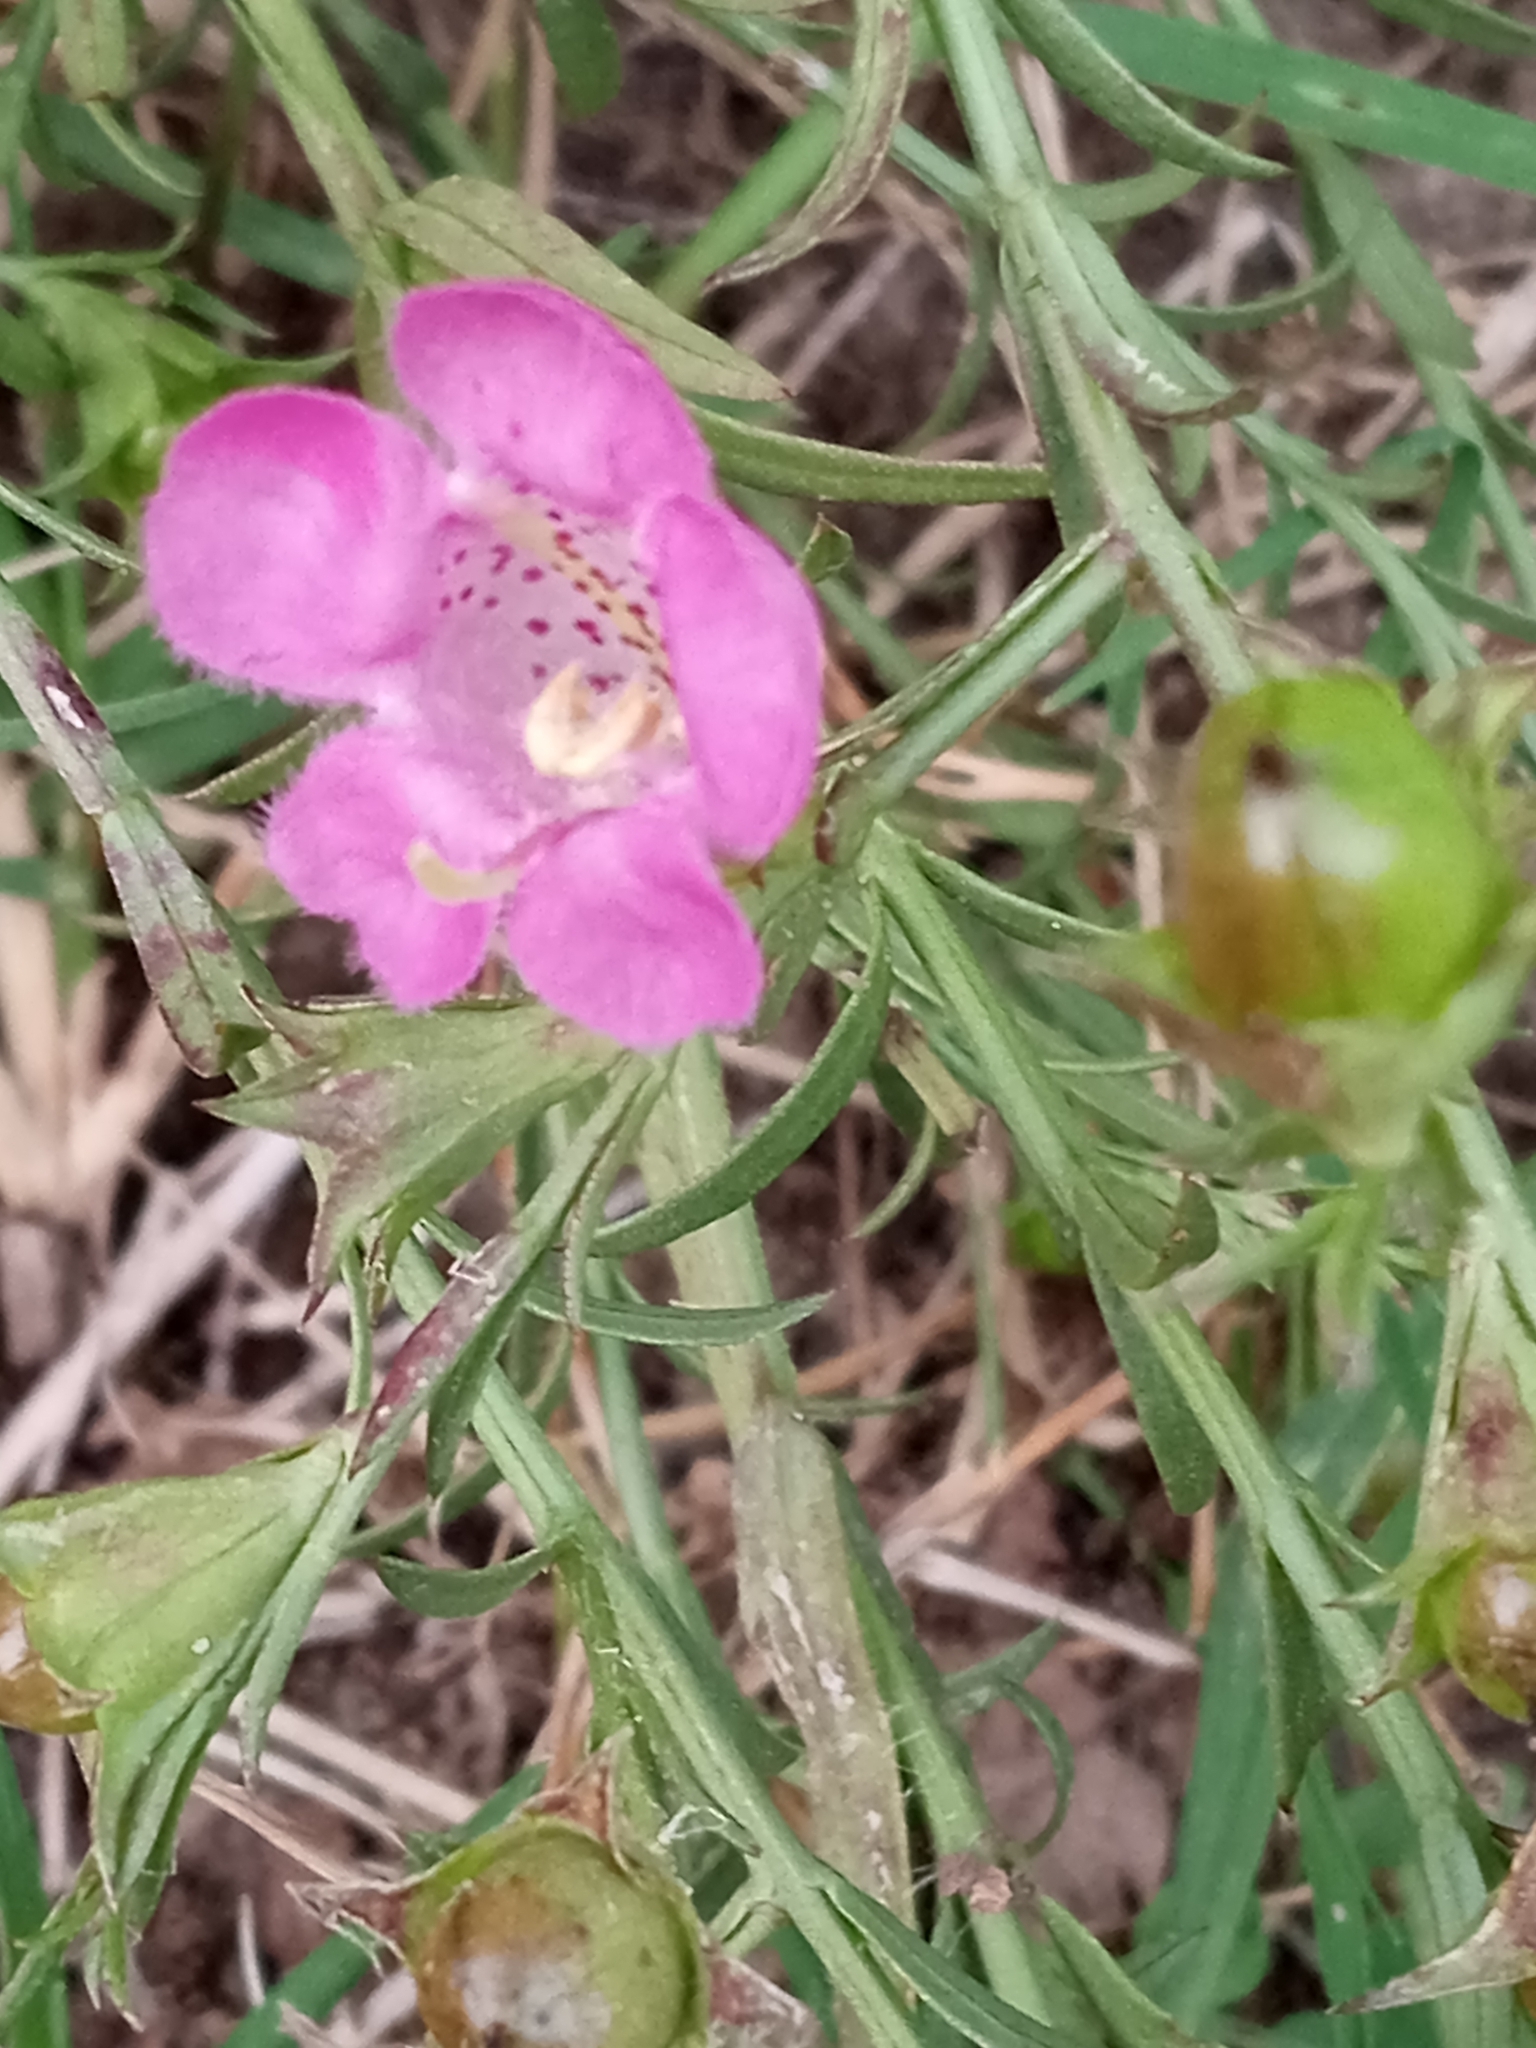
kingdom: Plantae
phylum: Tracheophyta
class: Magnoliopsida
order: Lamiales
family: Orobanchaceae
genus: Agalinis
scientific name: Agalinis heterophylla
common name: Prairie agalinis
